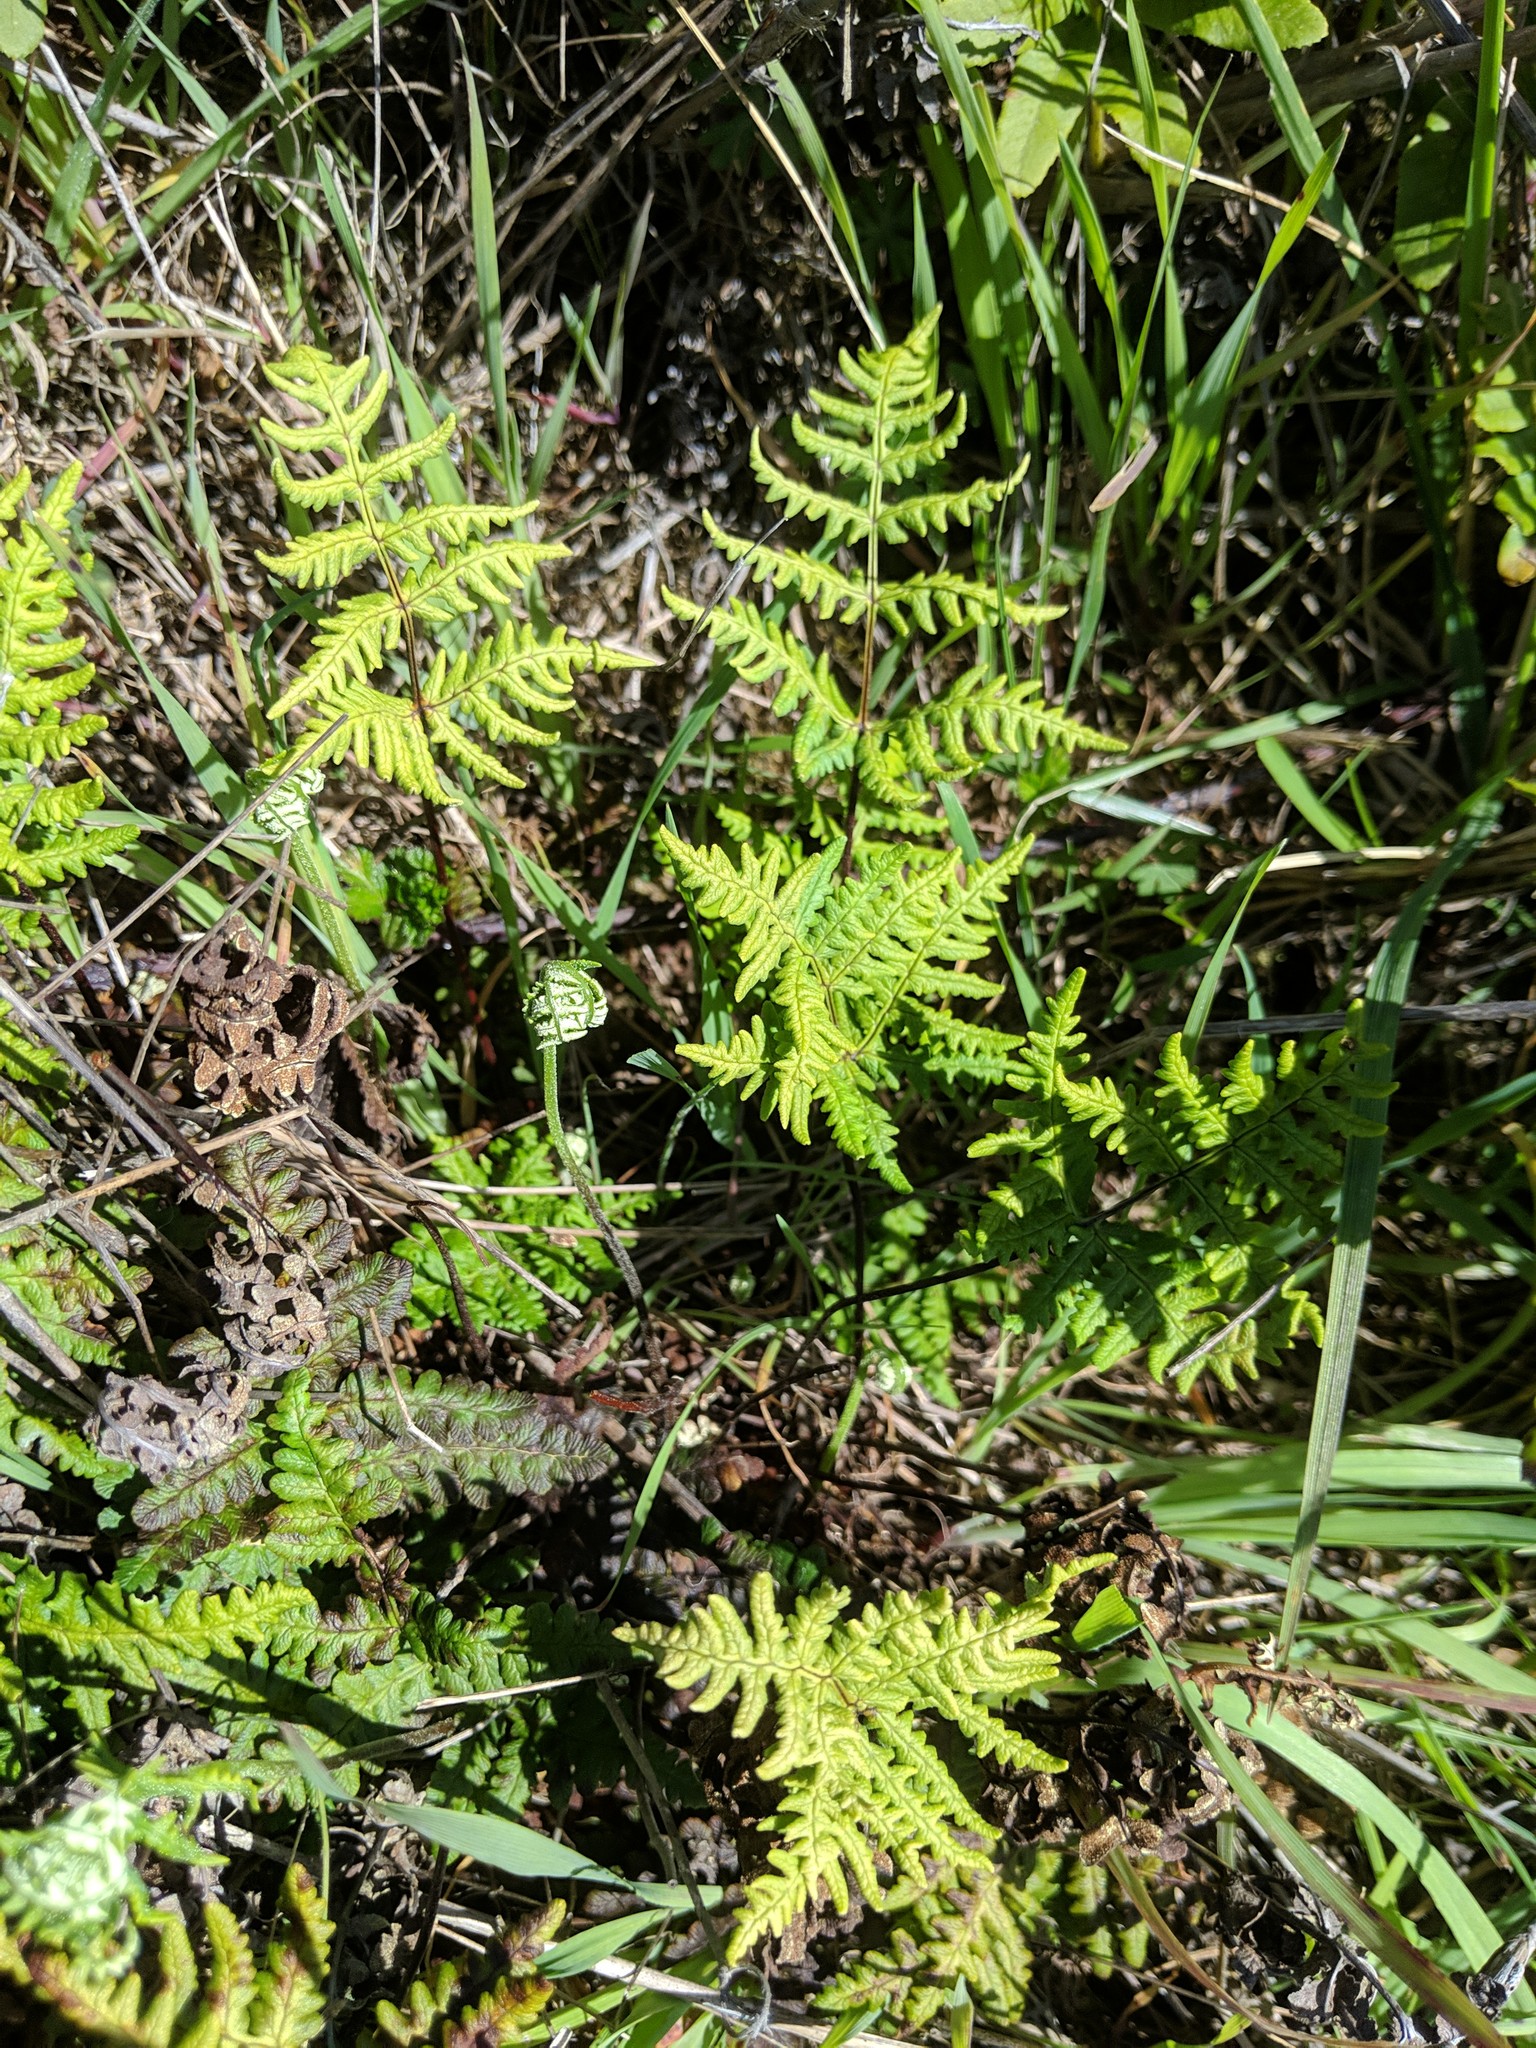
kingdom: Plantae
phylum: Tracheophyta
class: Polypodiopsida
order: Polypodiales
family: Pteridaceae
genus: Pentagramma
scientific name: Pentagramma triangularis
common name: Gold fern
